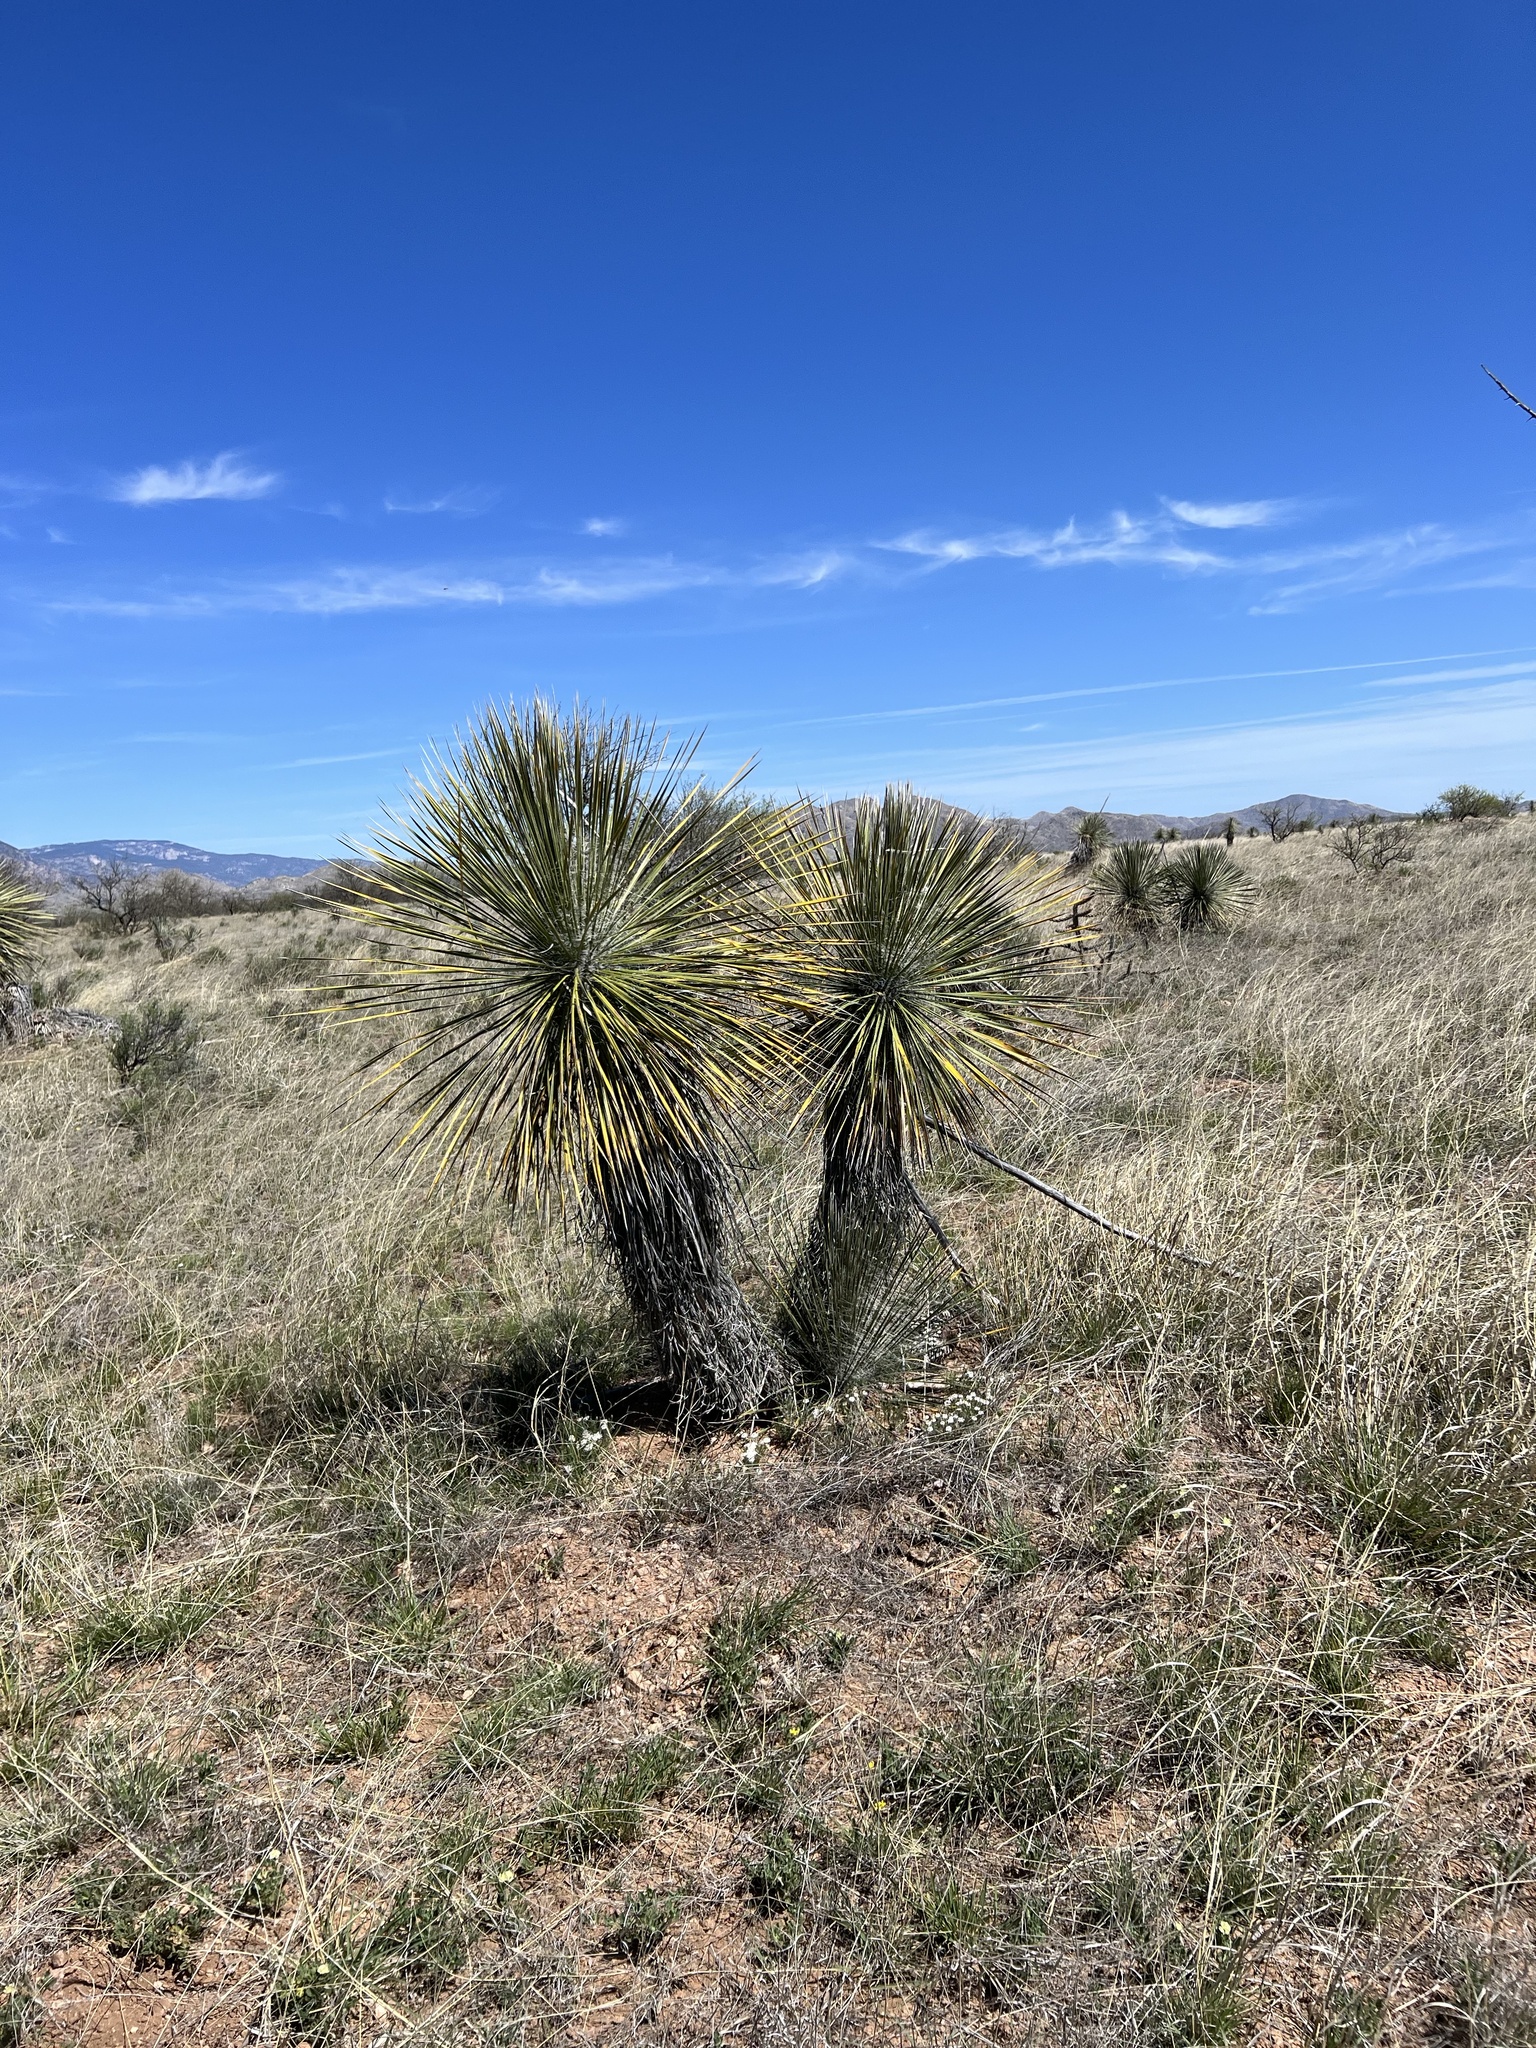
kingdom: Plantae
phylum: Tracheophyta
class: Liliopsida
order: Asparagales
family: Asparagaceae
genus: Yucca
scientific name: Yucca elata
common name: Palmella
